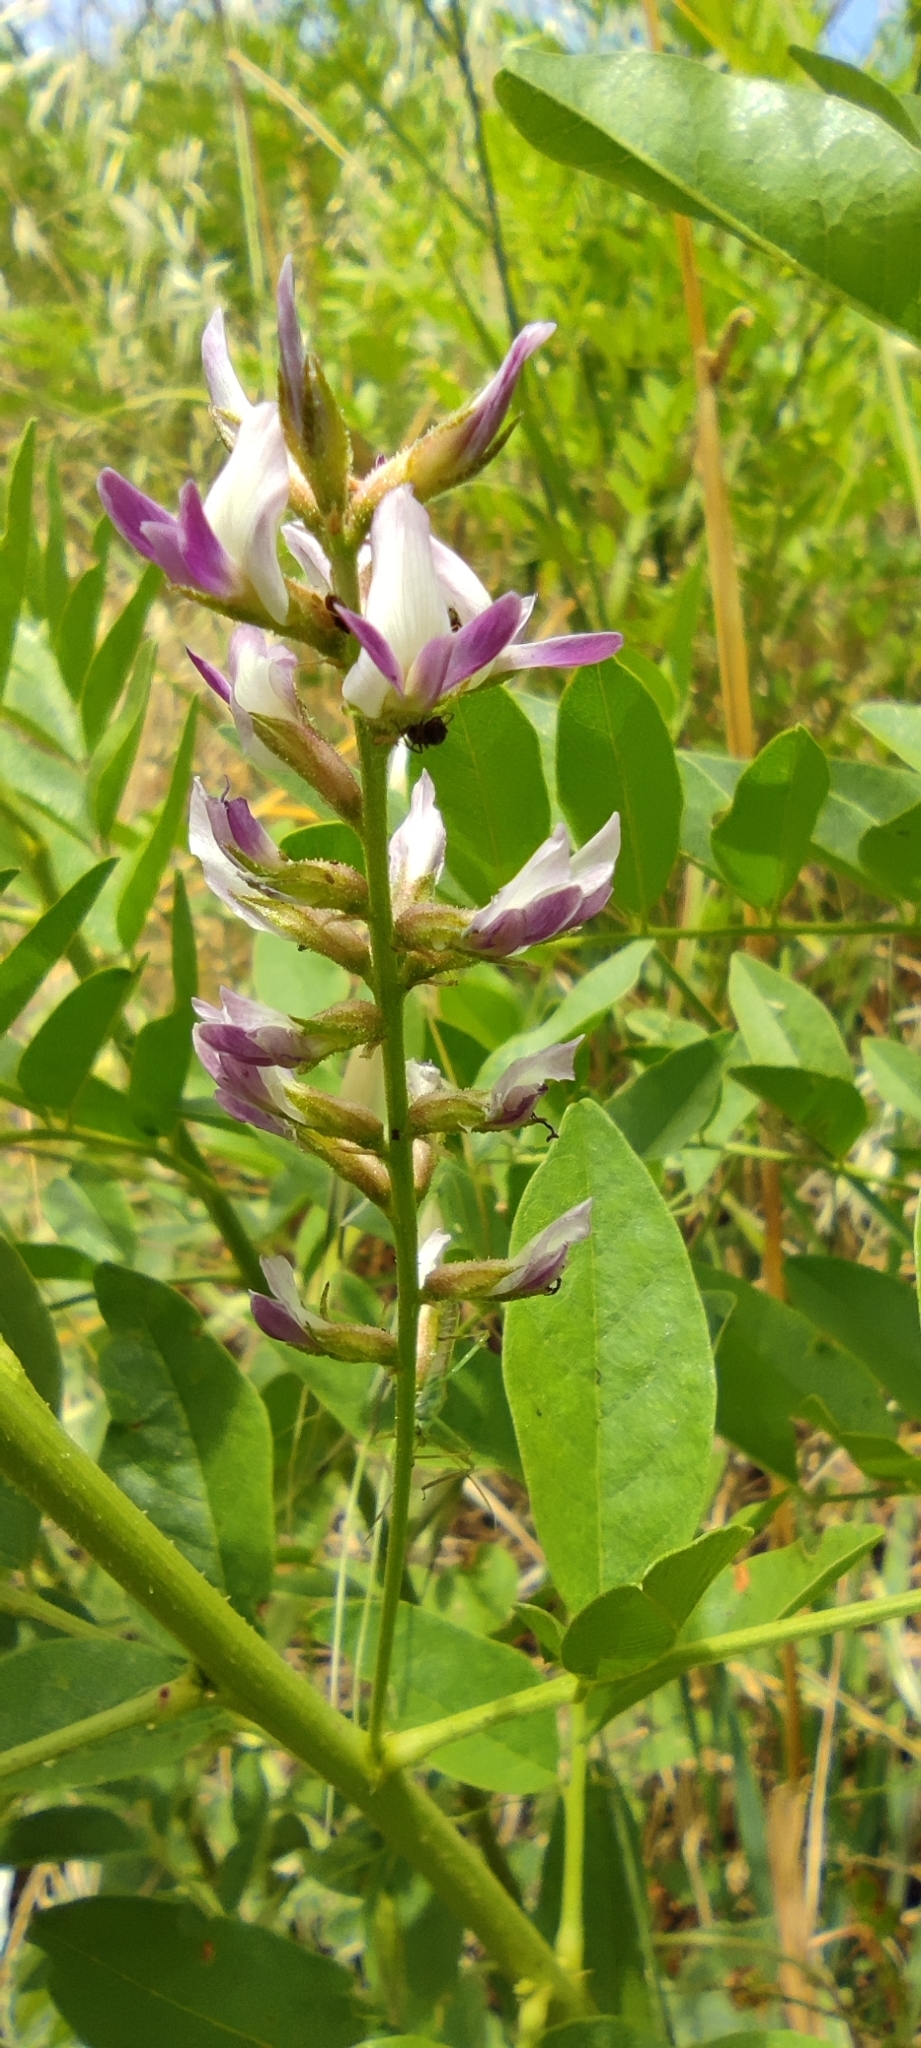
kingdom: Plantae
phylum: Tracheophyta
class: Magnoliopsida
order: Fabales
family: Fabaceae
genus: Glycyrrhiza
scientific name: Glycyrrhiza glabra
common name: Liquorice
